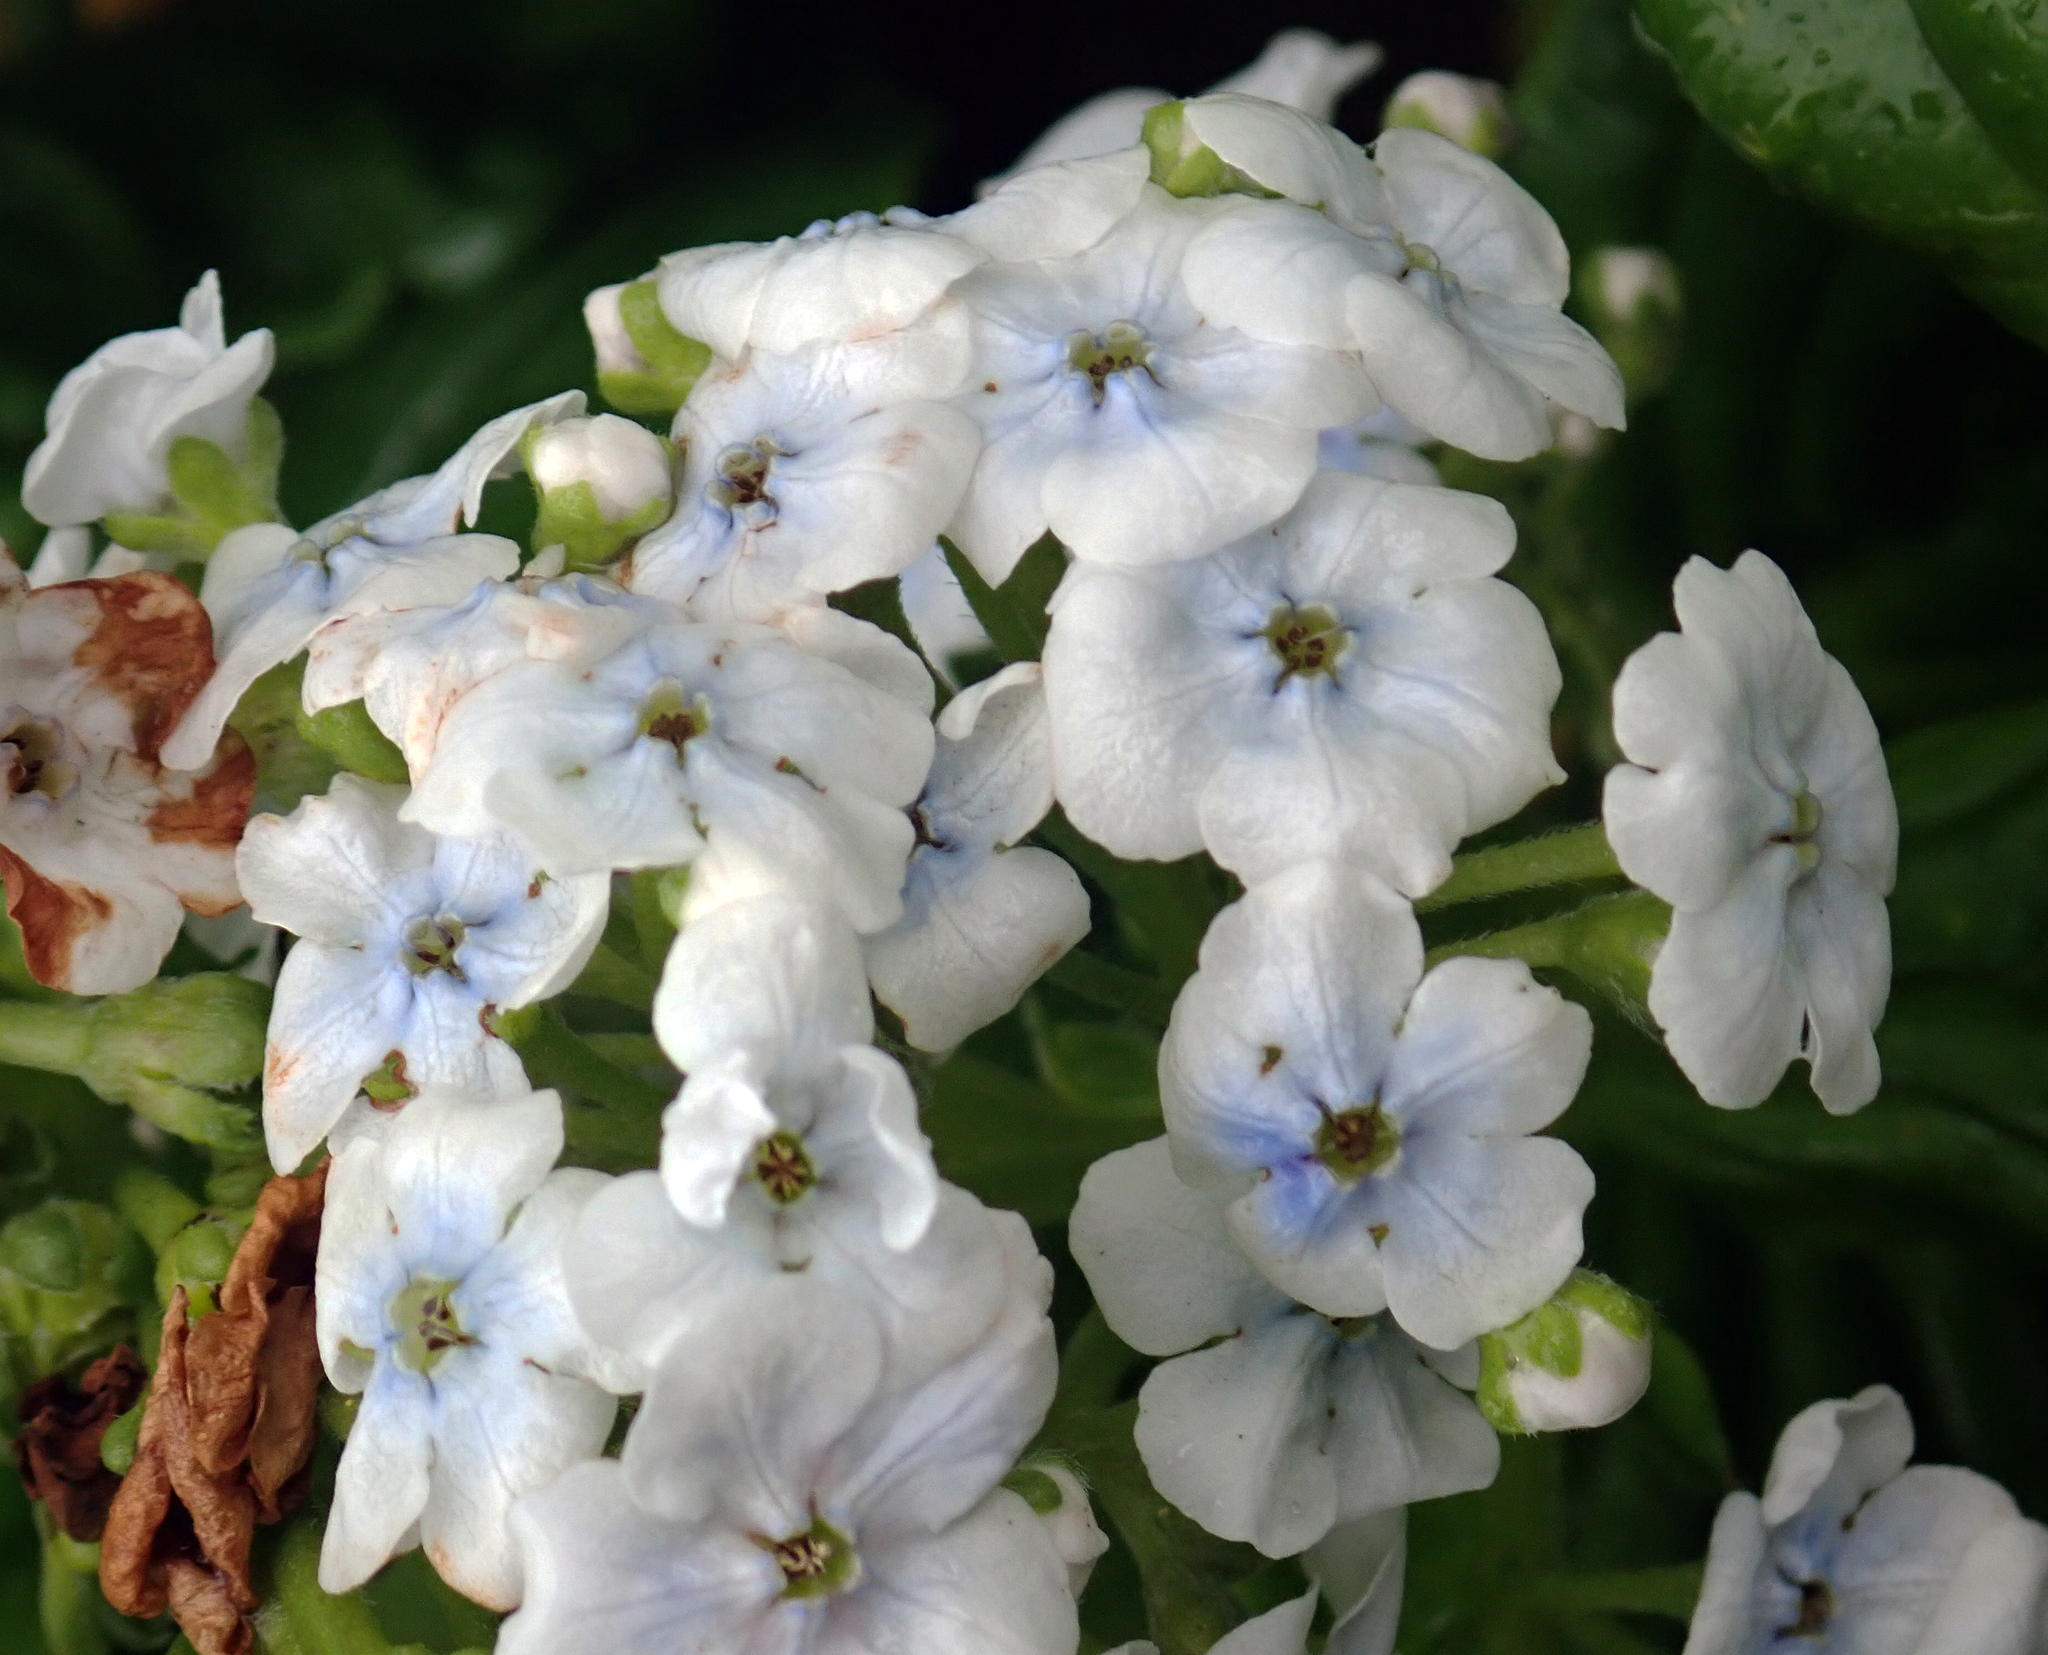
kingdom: Plantae
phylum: Tracheophyta
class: Magnoliopsida
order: Boraginales
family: Boraginaceae
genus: Myosotidium
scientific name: Myosotidium hortensia
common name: Giant forget-me-not
